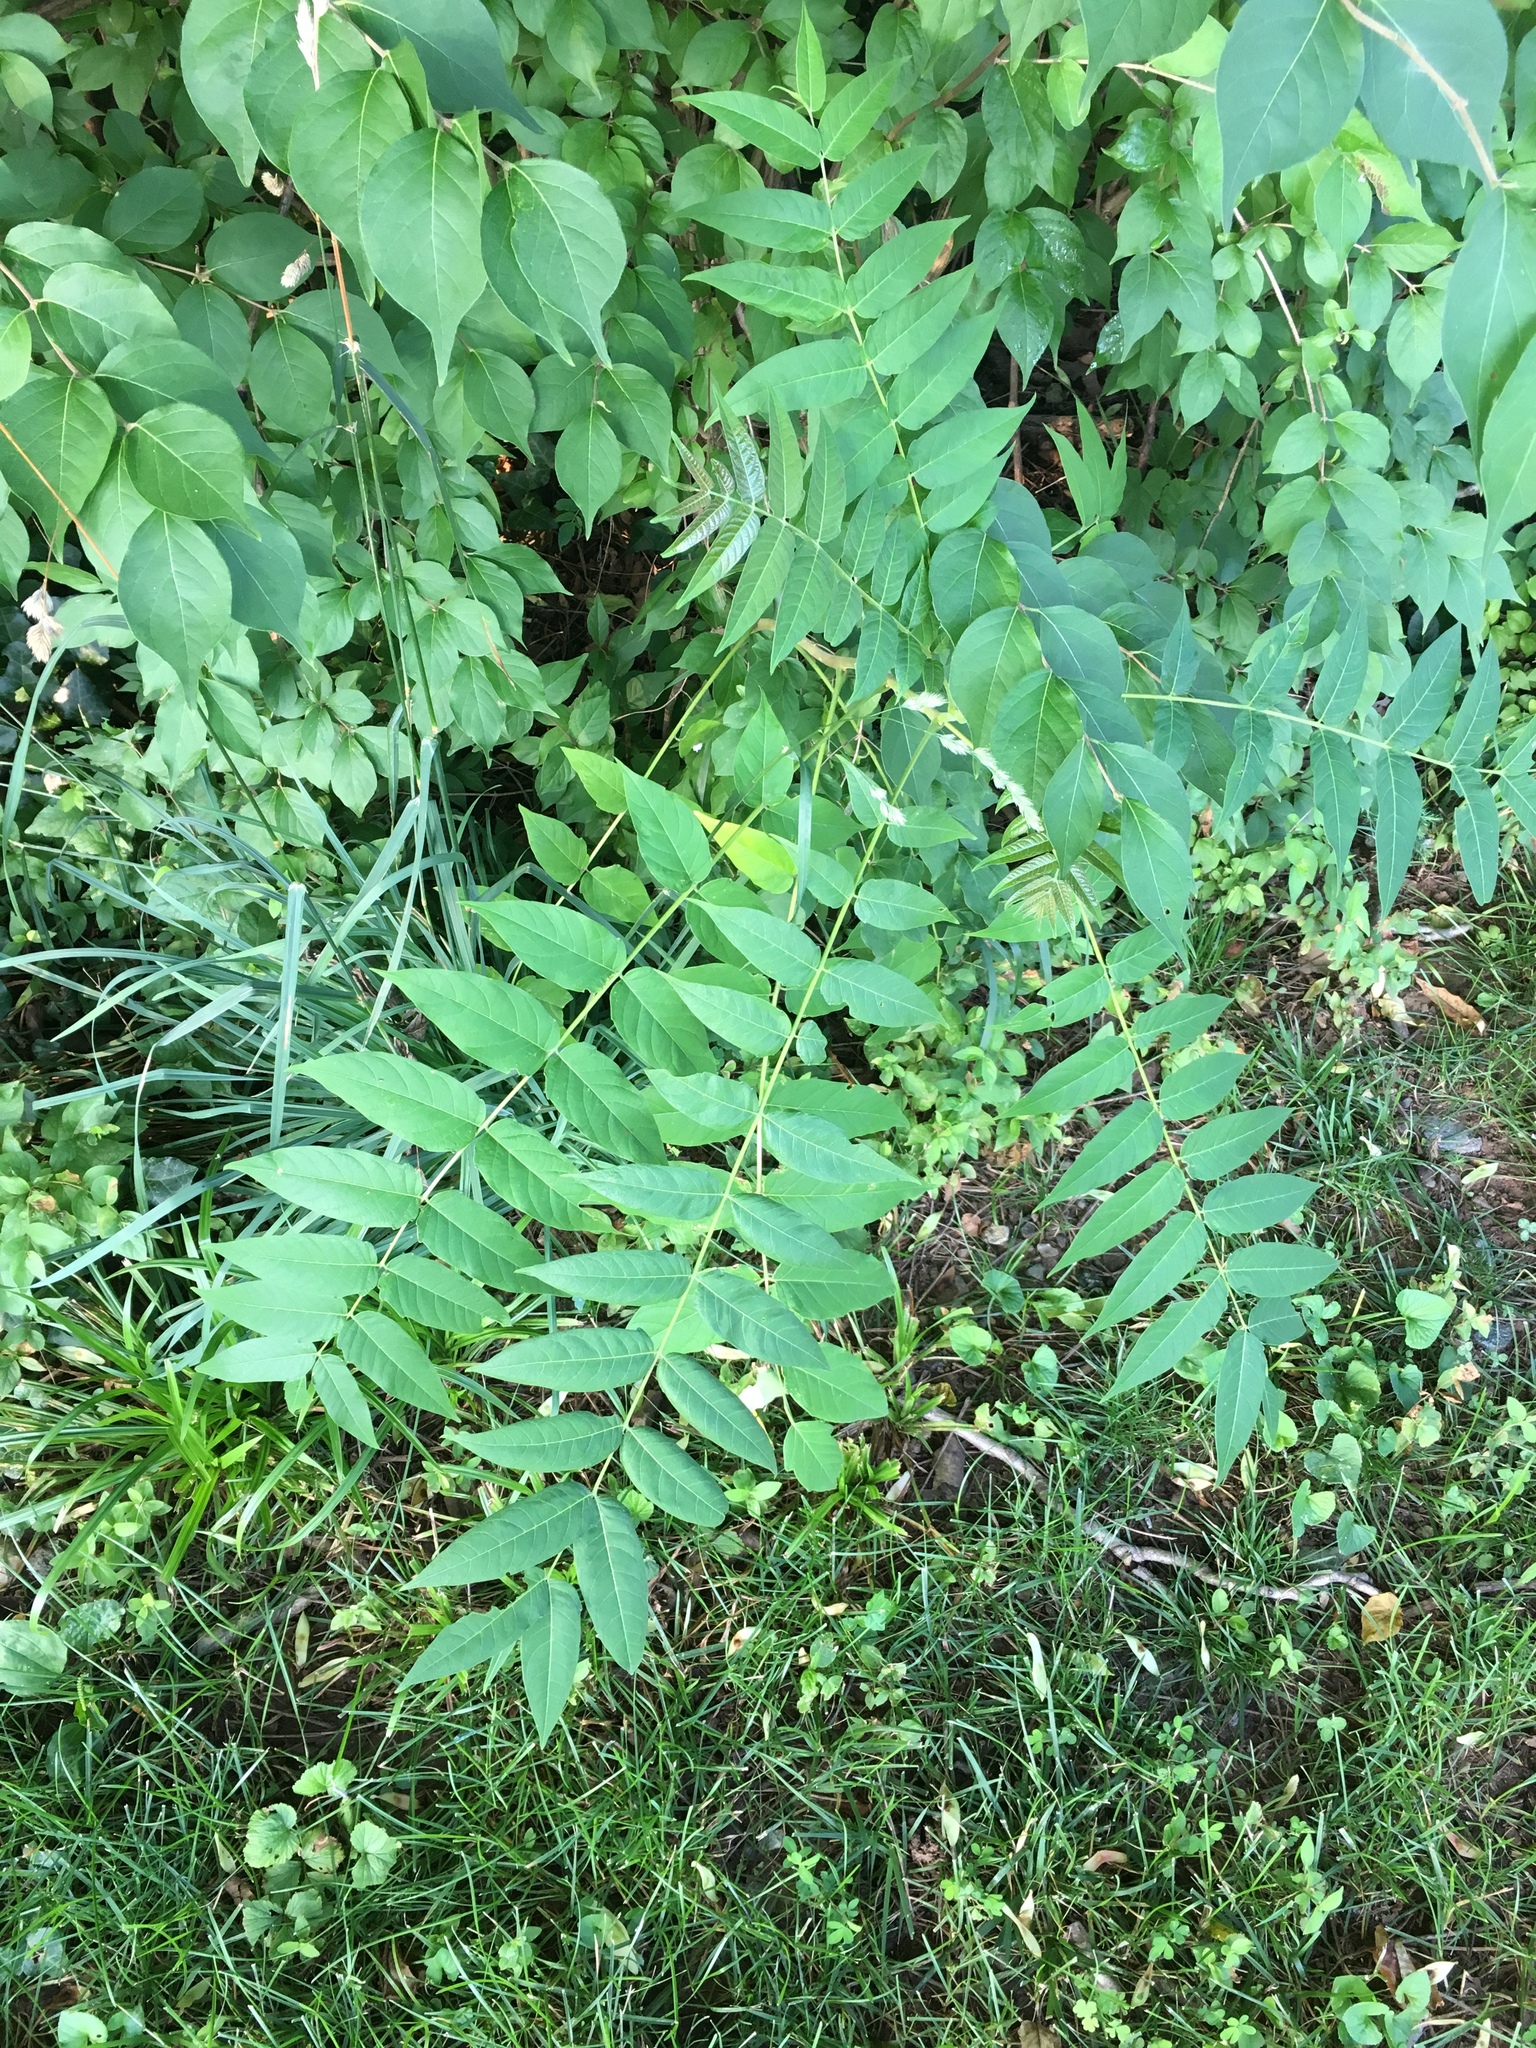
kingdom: Plantae
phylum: Tracheophyta
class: Magnoliopsida
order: Sapindales
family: Simaroubaceae
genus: Ailanthus
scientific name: Ailanthus altissima
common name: Tree-of-heaven
